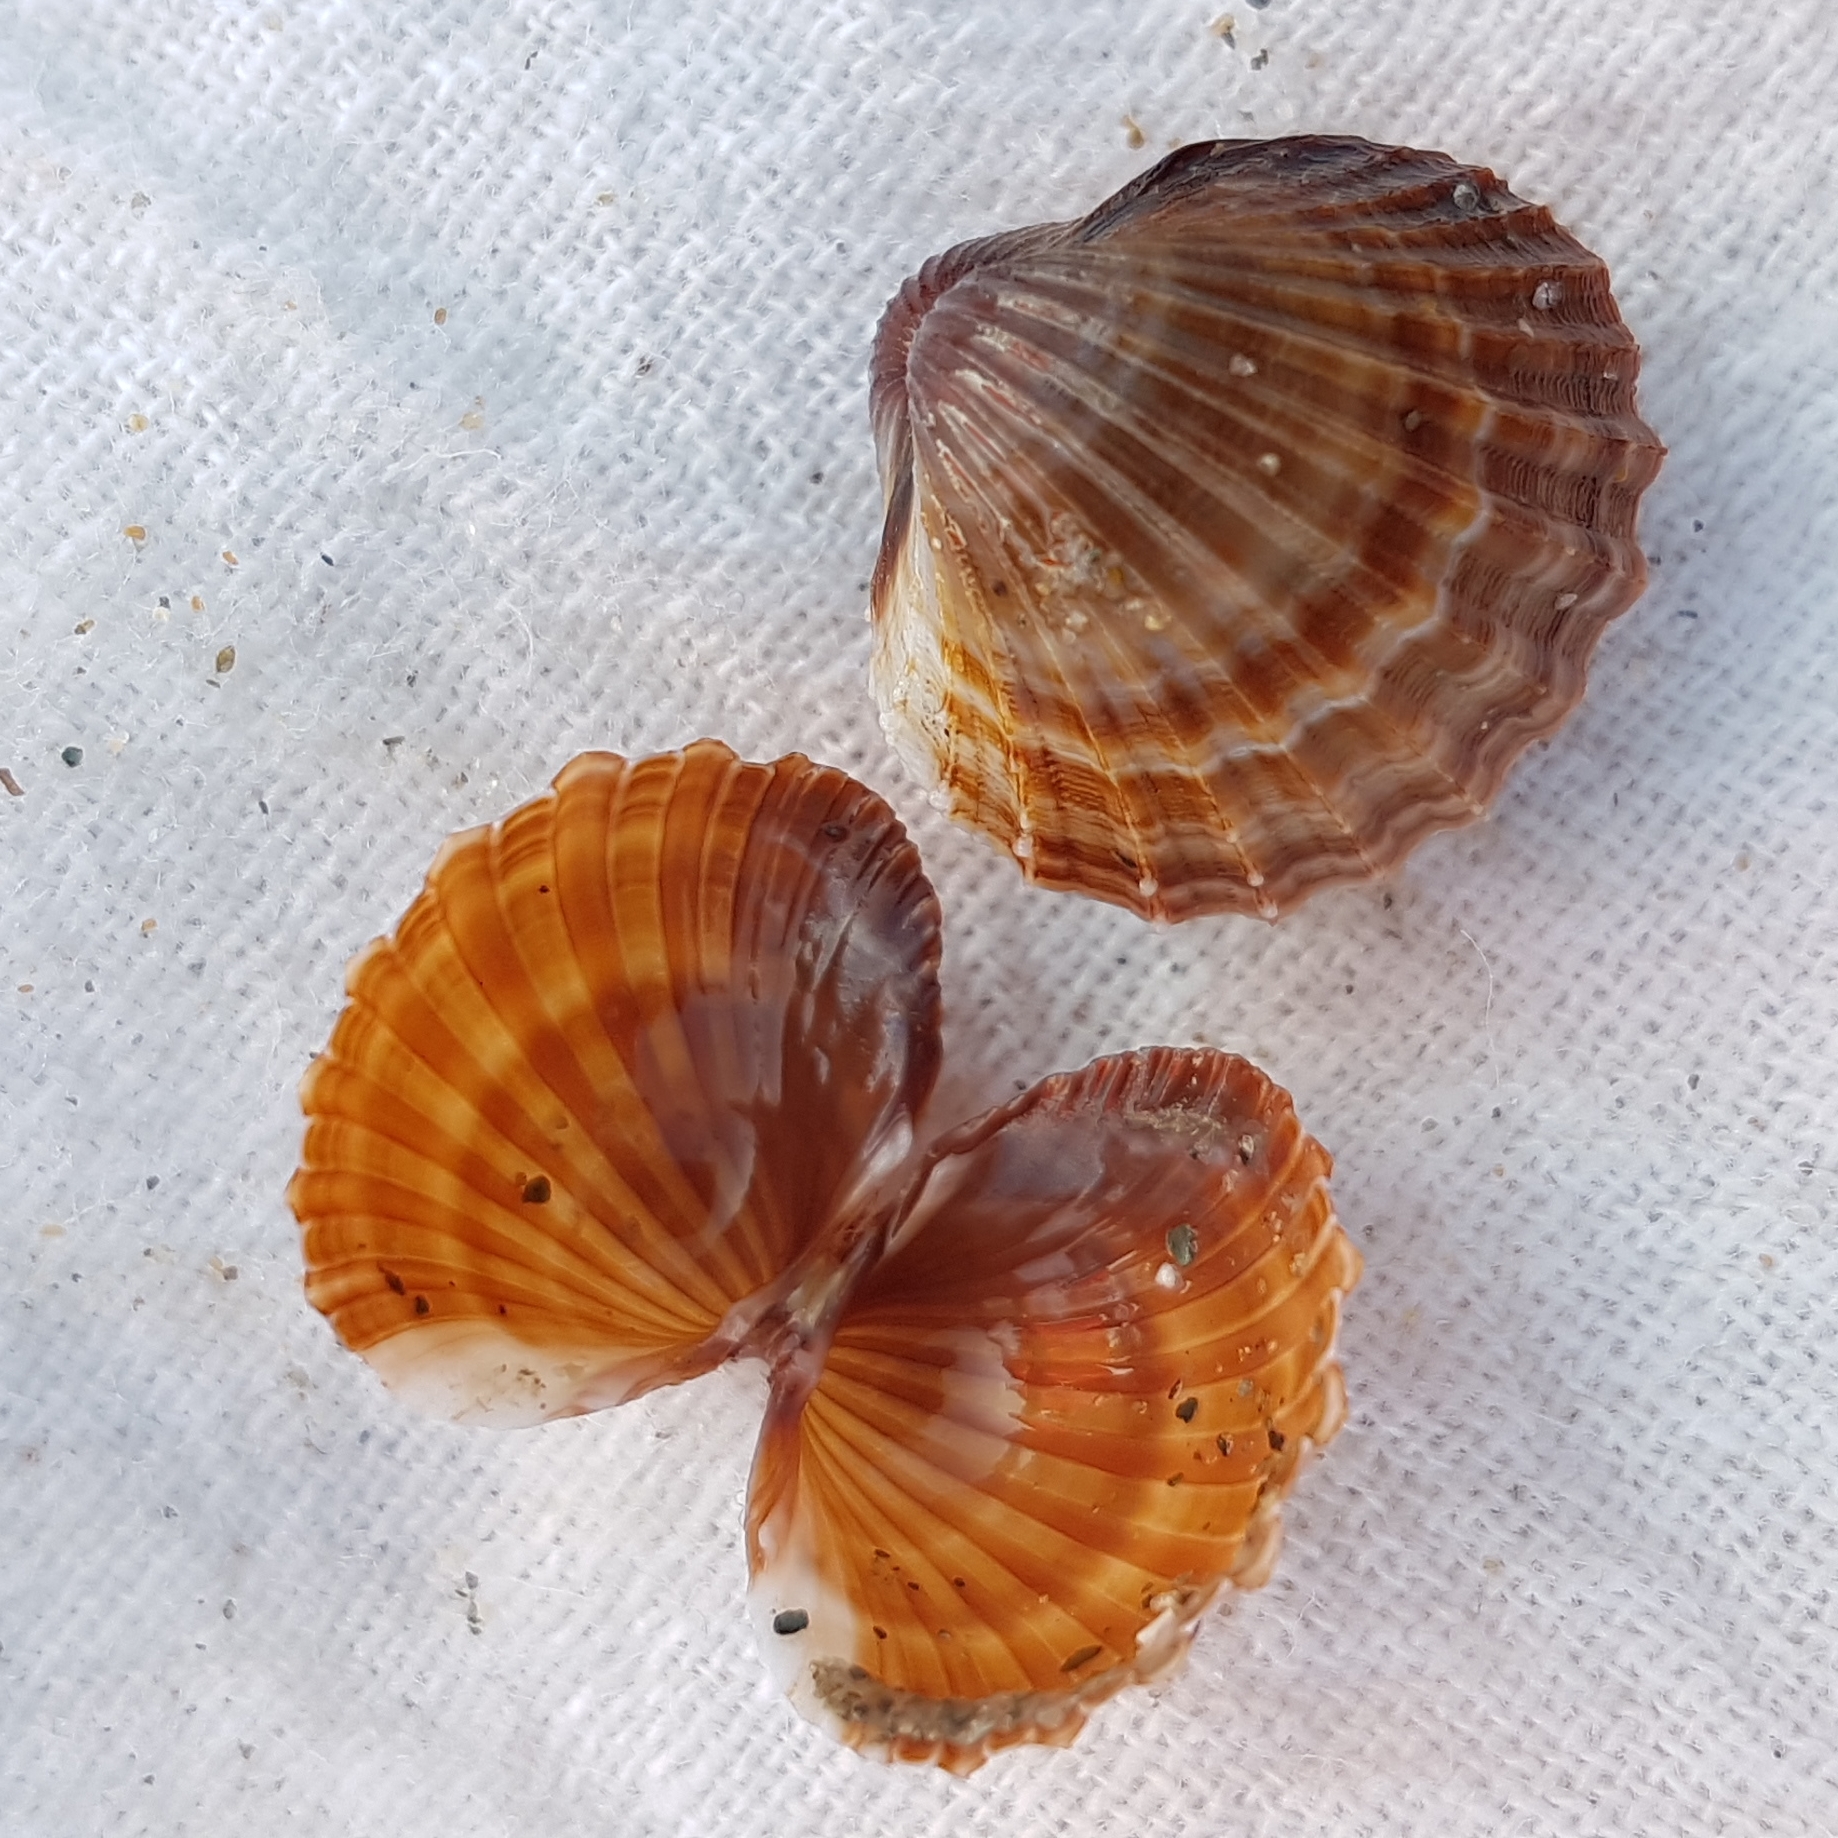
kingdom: Animalia
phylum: Mollusca
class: Bivalvia
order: Cardiida
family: Cardiidae
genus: Acanthocardia
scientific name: Acanthocardia paucicostata
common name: Poorly ribbed cockle
